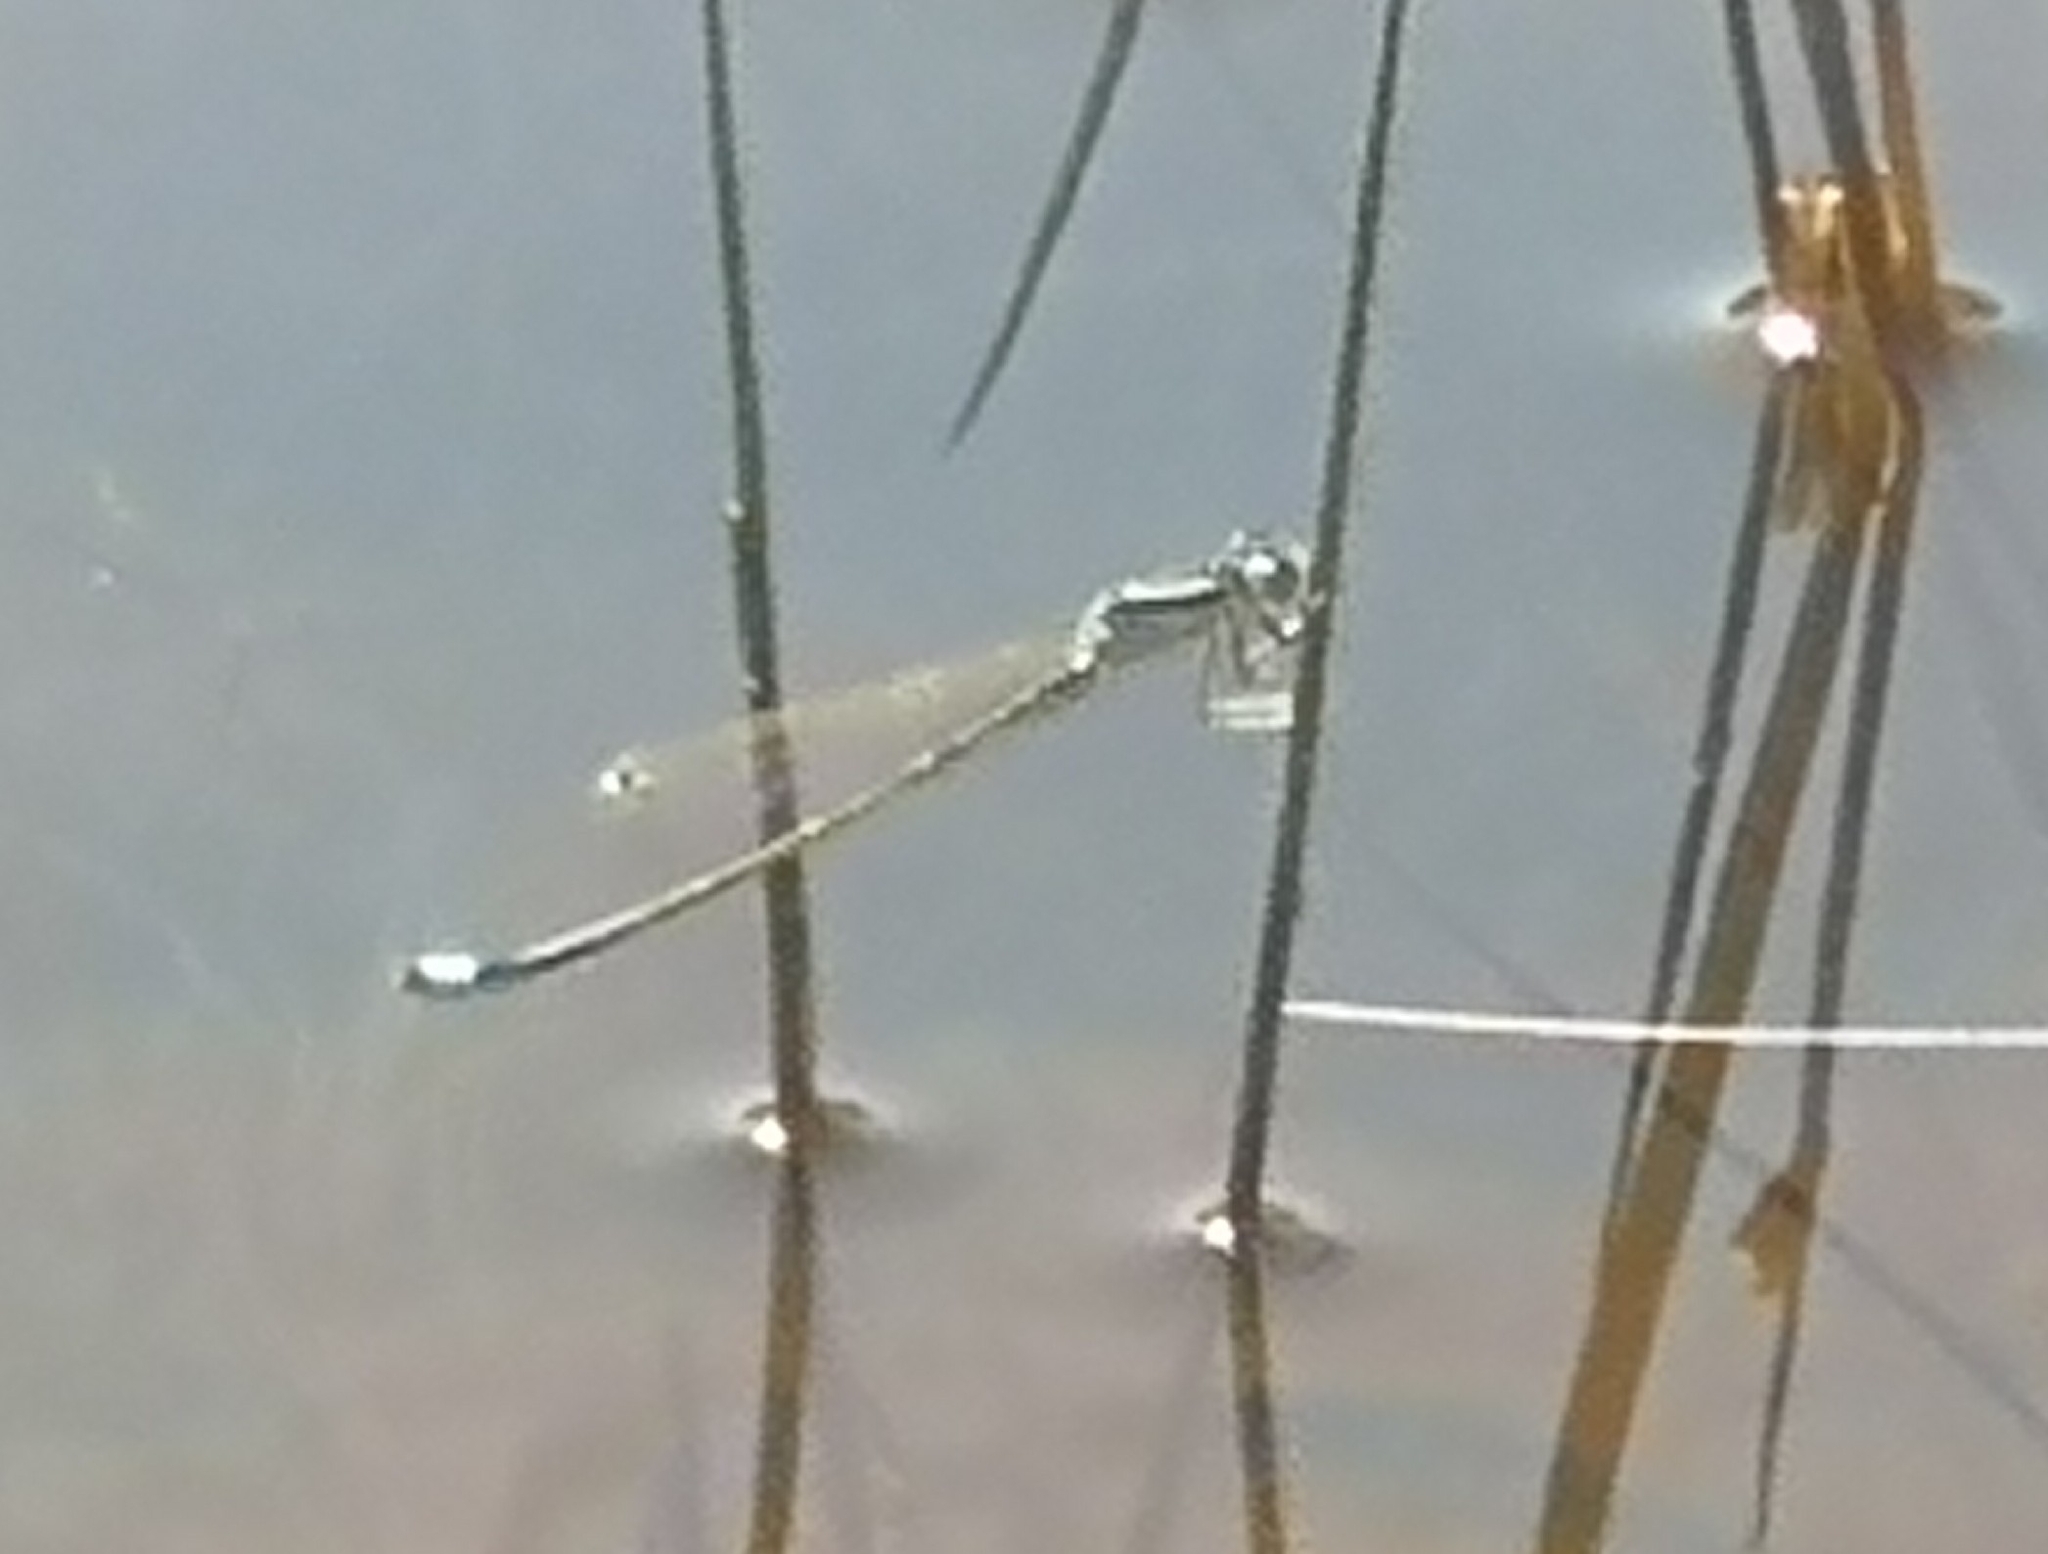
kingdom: Animalia
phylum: Arthropoda
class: Insecta
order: Odonata
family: Coenagrionidae
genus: Ischnura
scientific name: Ischnura pumilio
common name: Scarce blue-tailed damselfly
